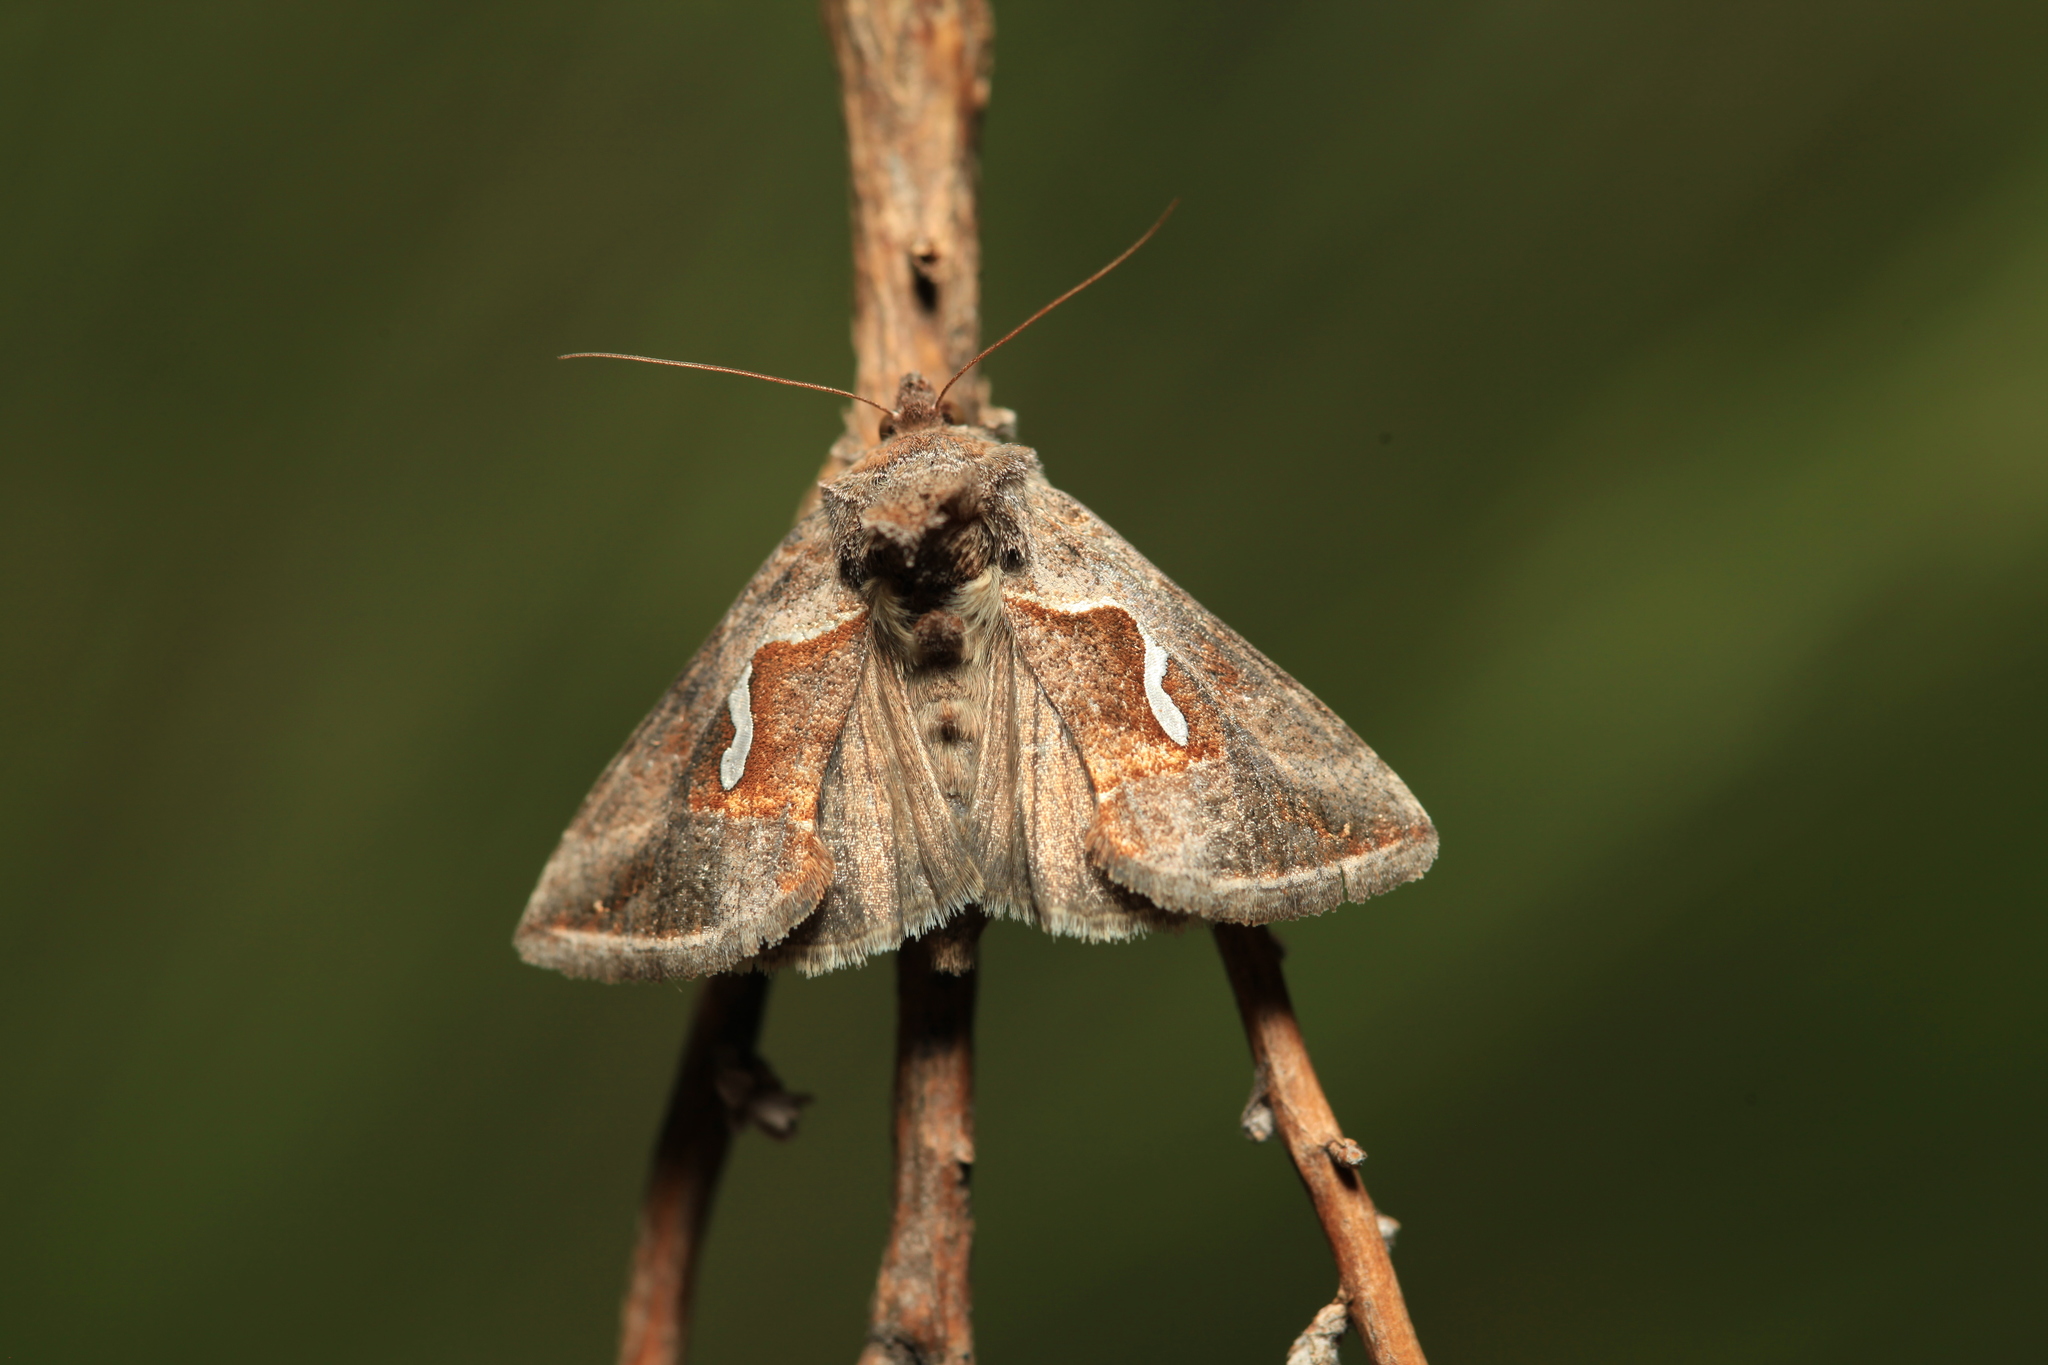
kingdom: Animalia
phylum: Arthropoda
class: Insecta
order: Lepidoptera
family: Noctuidae
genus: Macdunnoughia
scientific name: Macdunnoughia confusa
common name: Dewick's plusia
